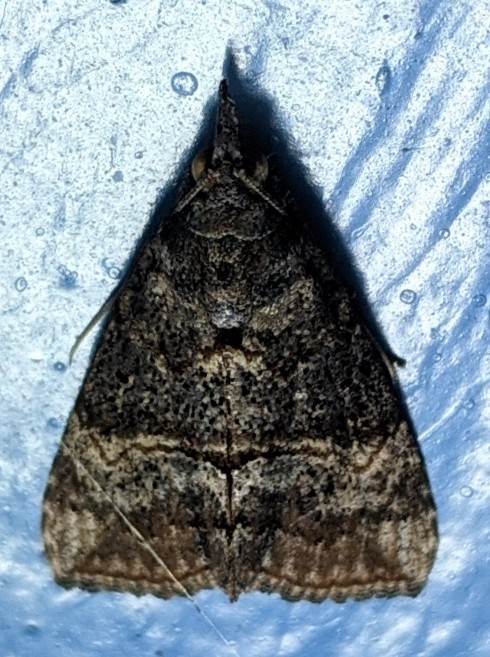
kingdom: Animalia
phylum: Arthropoda
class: Insecta
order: Lepidoptera
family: Erebidae
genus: Hypena
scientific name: Hypena scabra
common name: Green cloverworm
